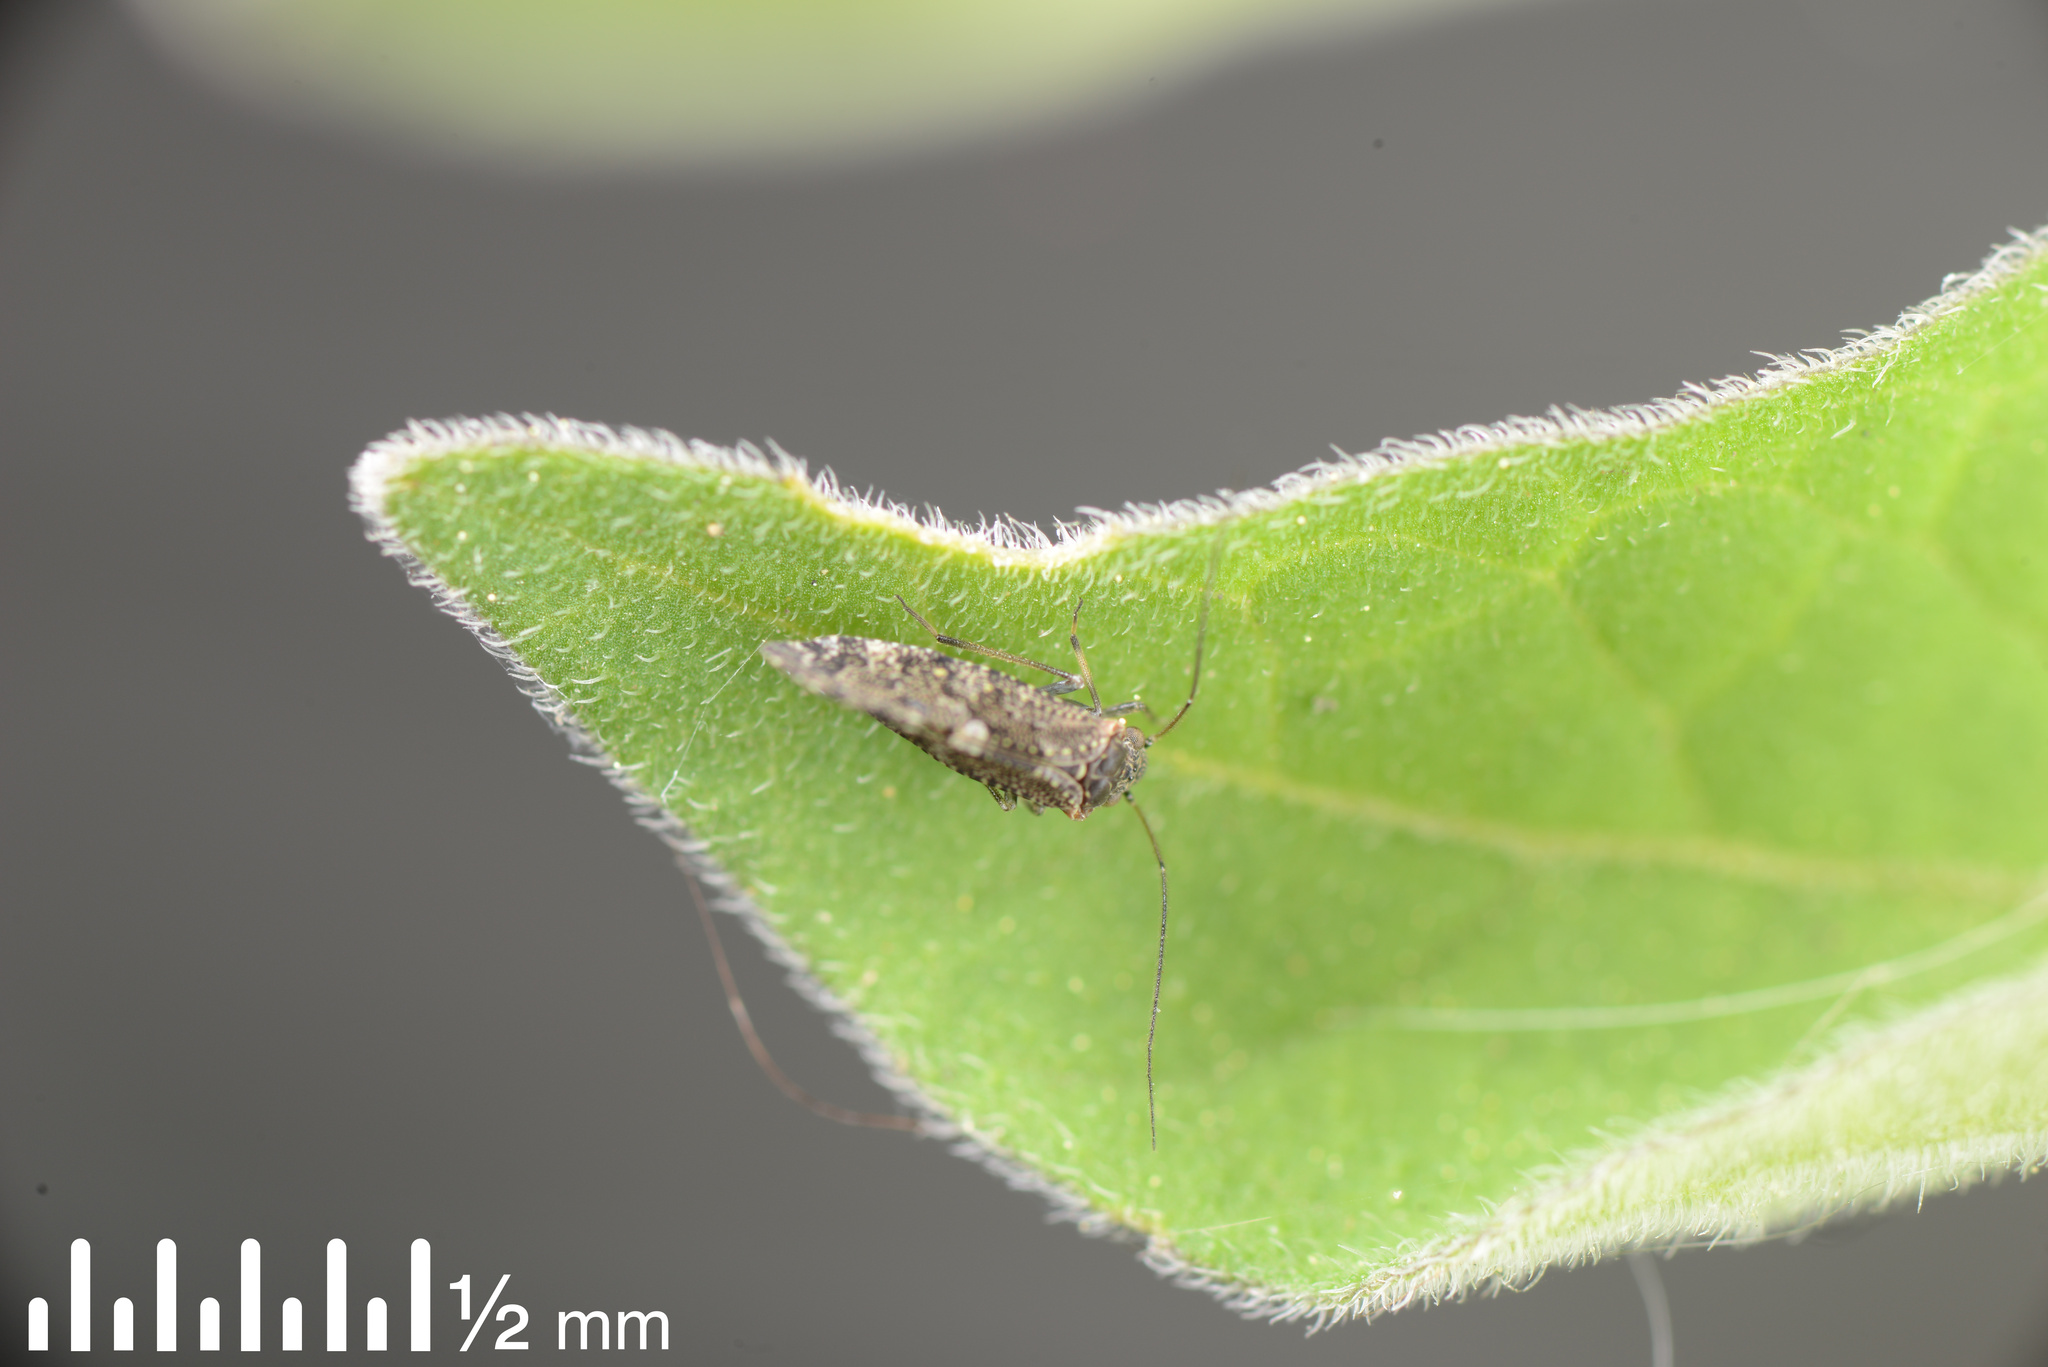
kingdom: Animalia
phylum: Arthropoda
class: Insecta
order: Psocodea
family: Myopsocidae
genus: Nimbopsocus
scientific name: Nimbopsocus australis
